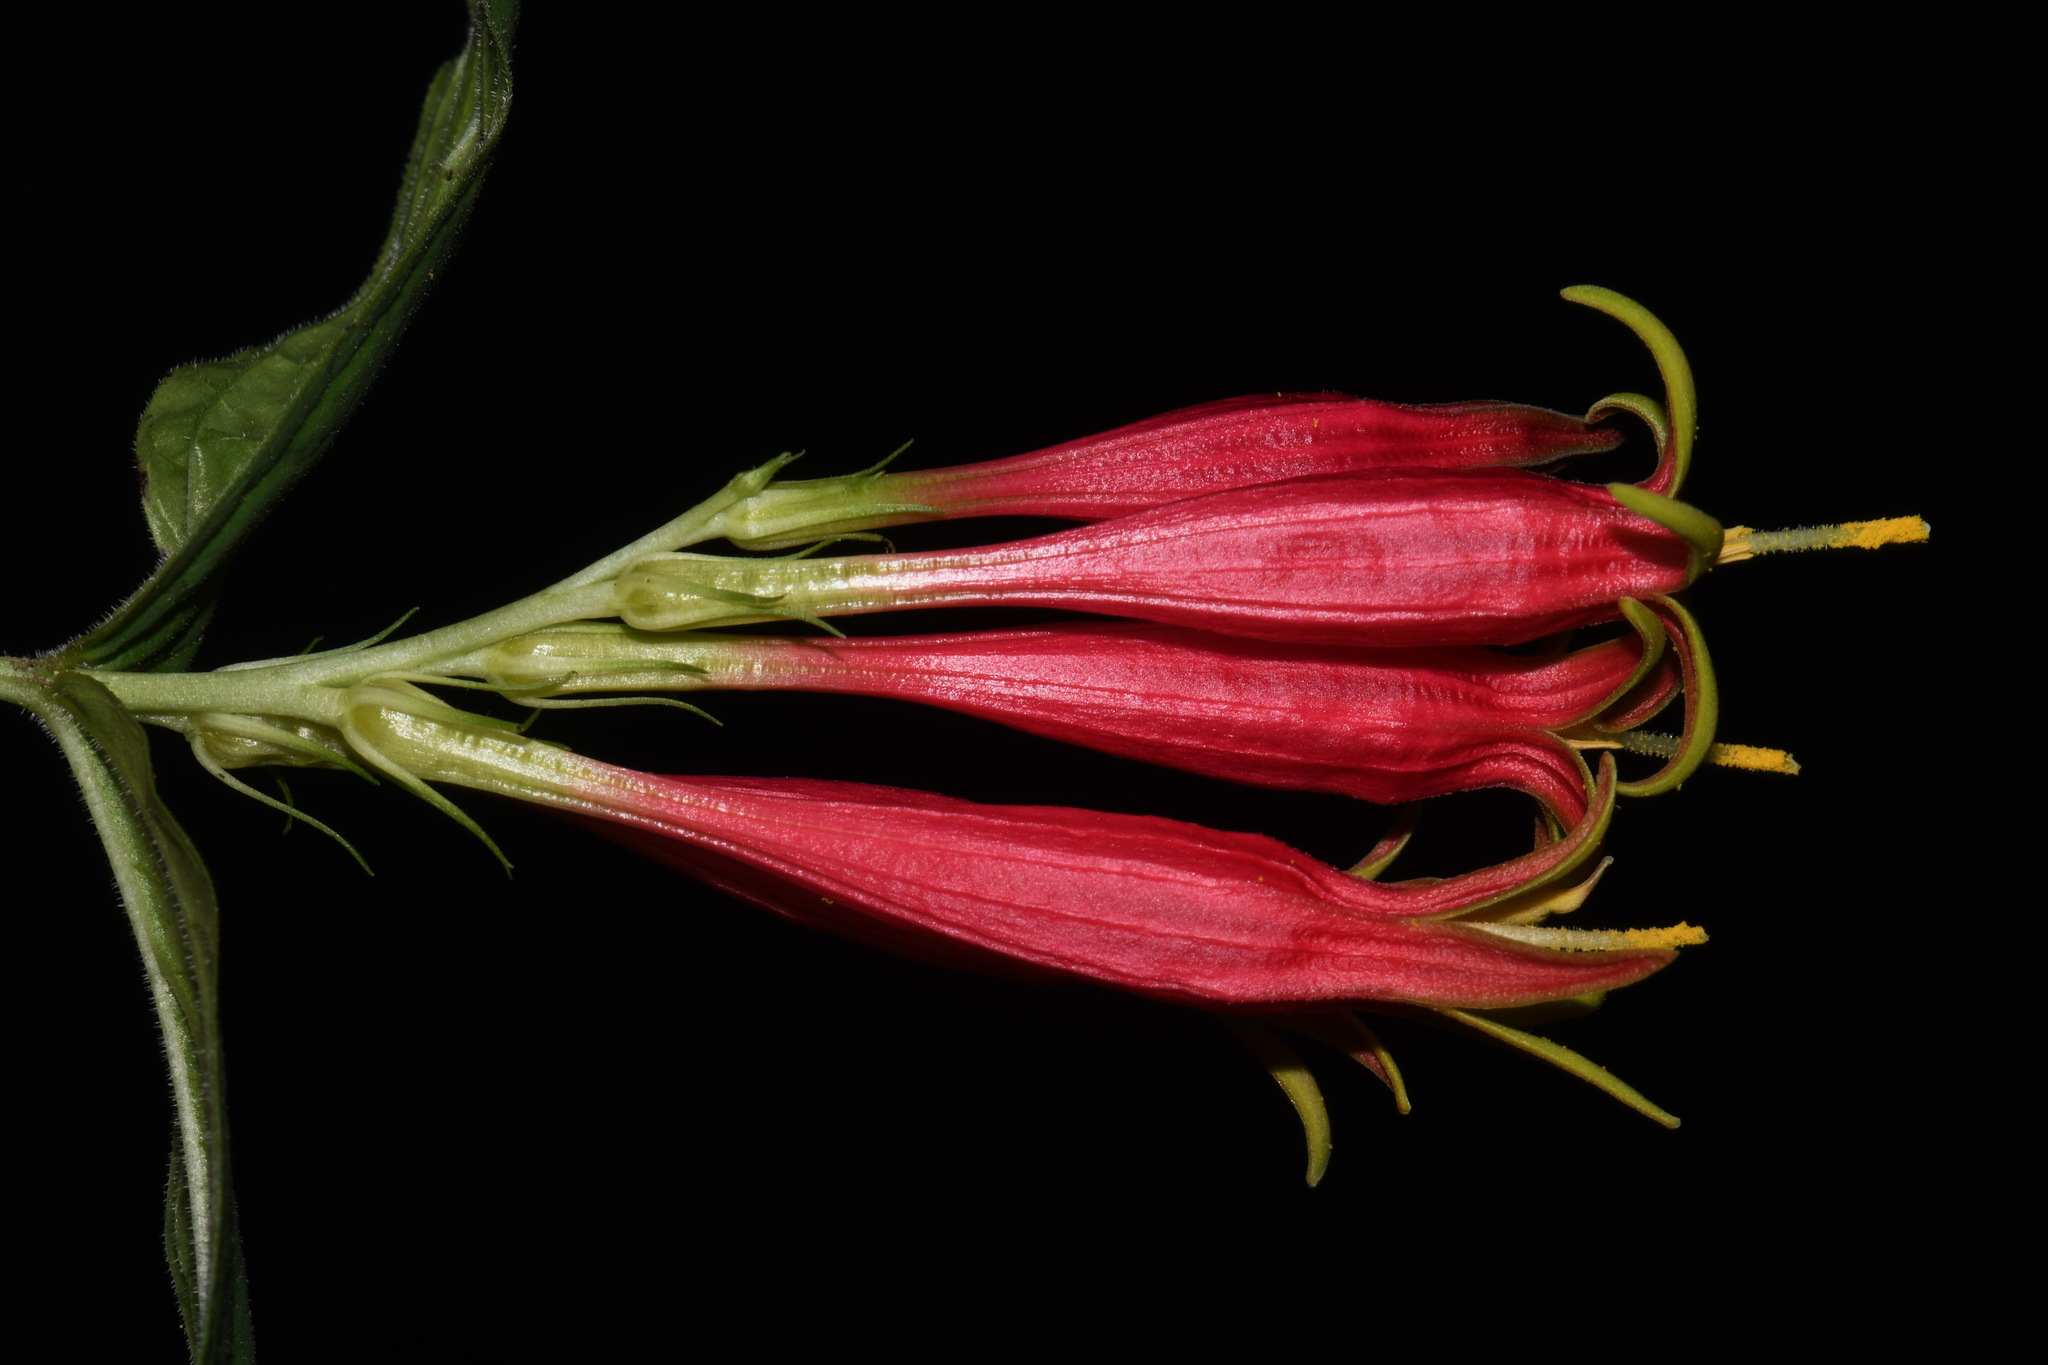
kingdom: Plantae
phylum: Tracheophyta
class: Magnoliopsida
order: Gentianales
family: Loganiaceae
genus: Spigelia
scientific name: Spigelia marilandica
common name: Indian-pink
